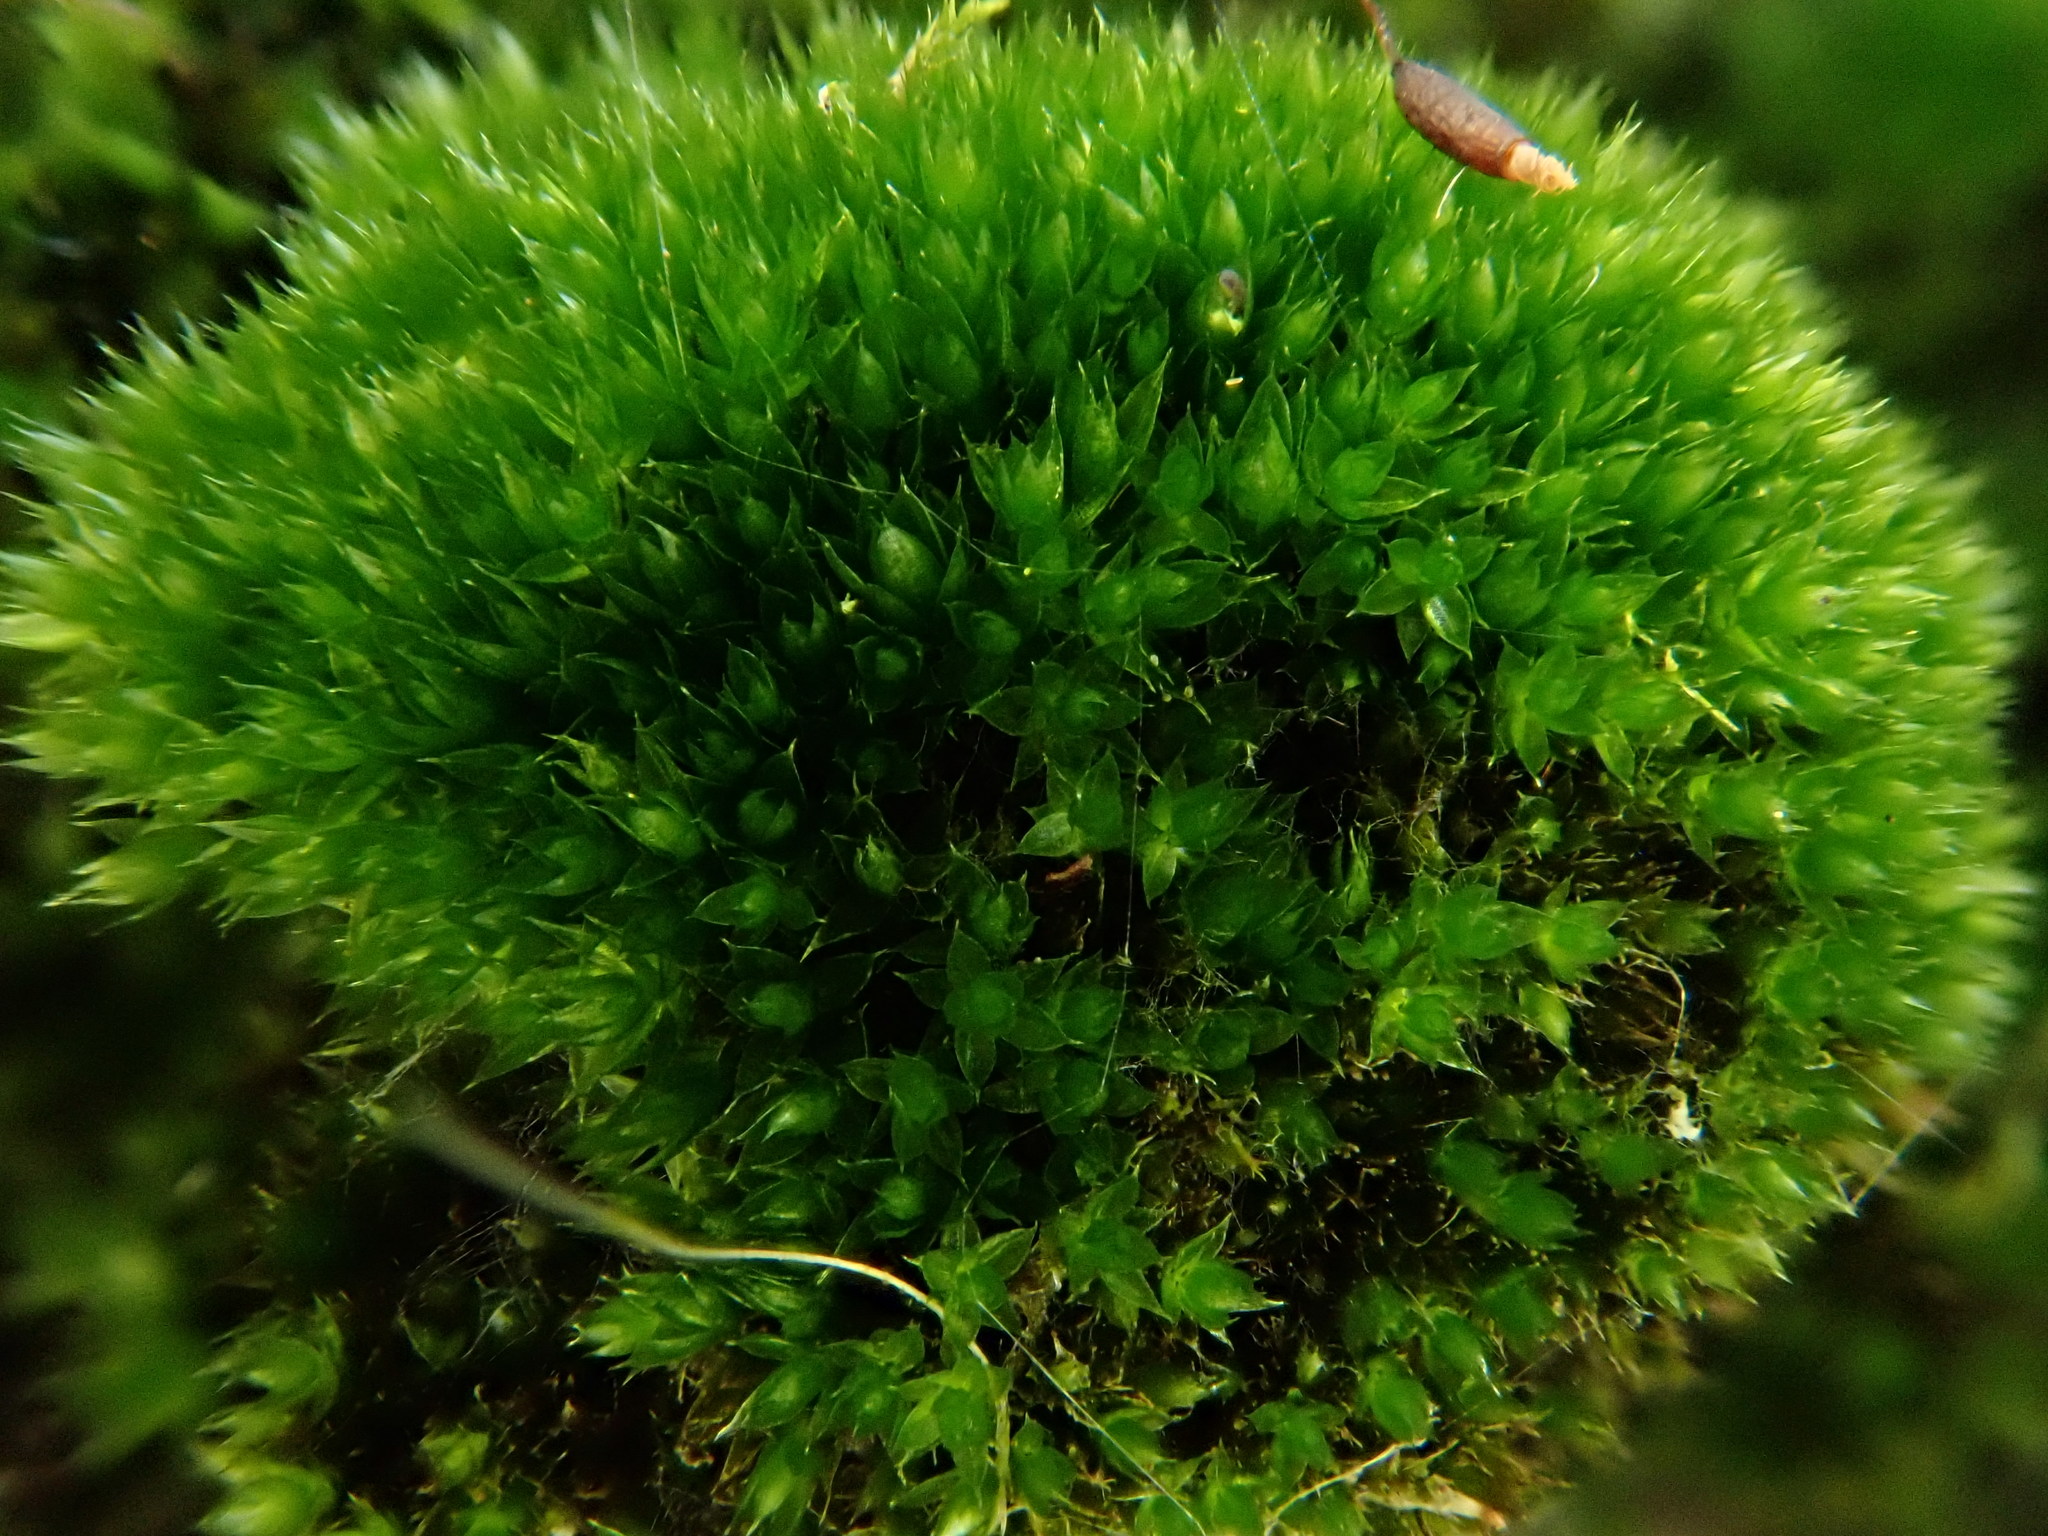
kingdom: Plantae
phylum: Bryophyta
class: Bryopsida
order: Bryales
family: Bryaceae
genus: Rosulabryum
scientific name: Rosulabryum capillare
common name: Capillary thread-moss
